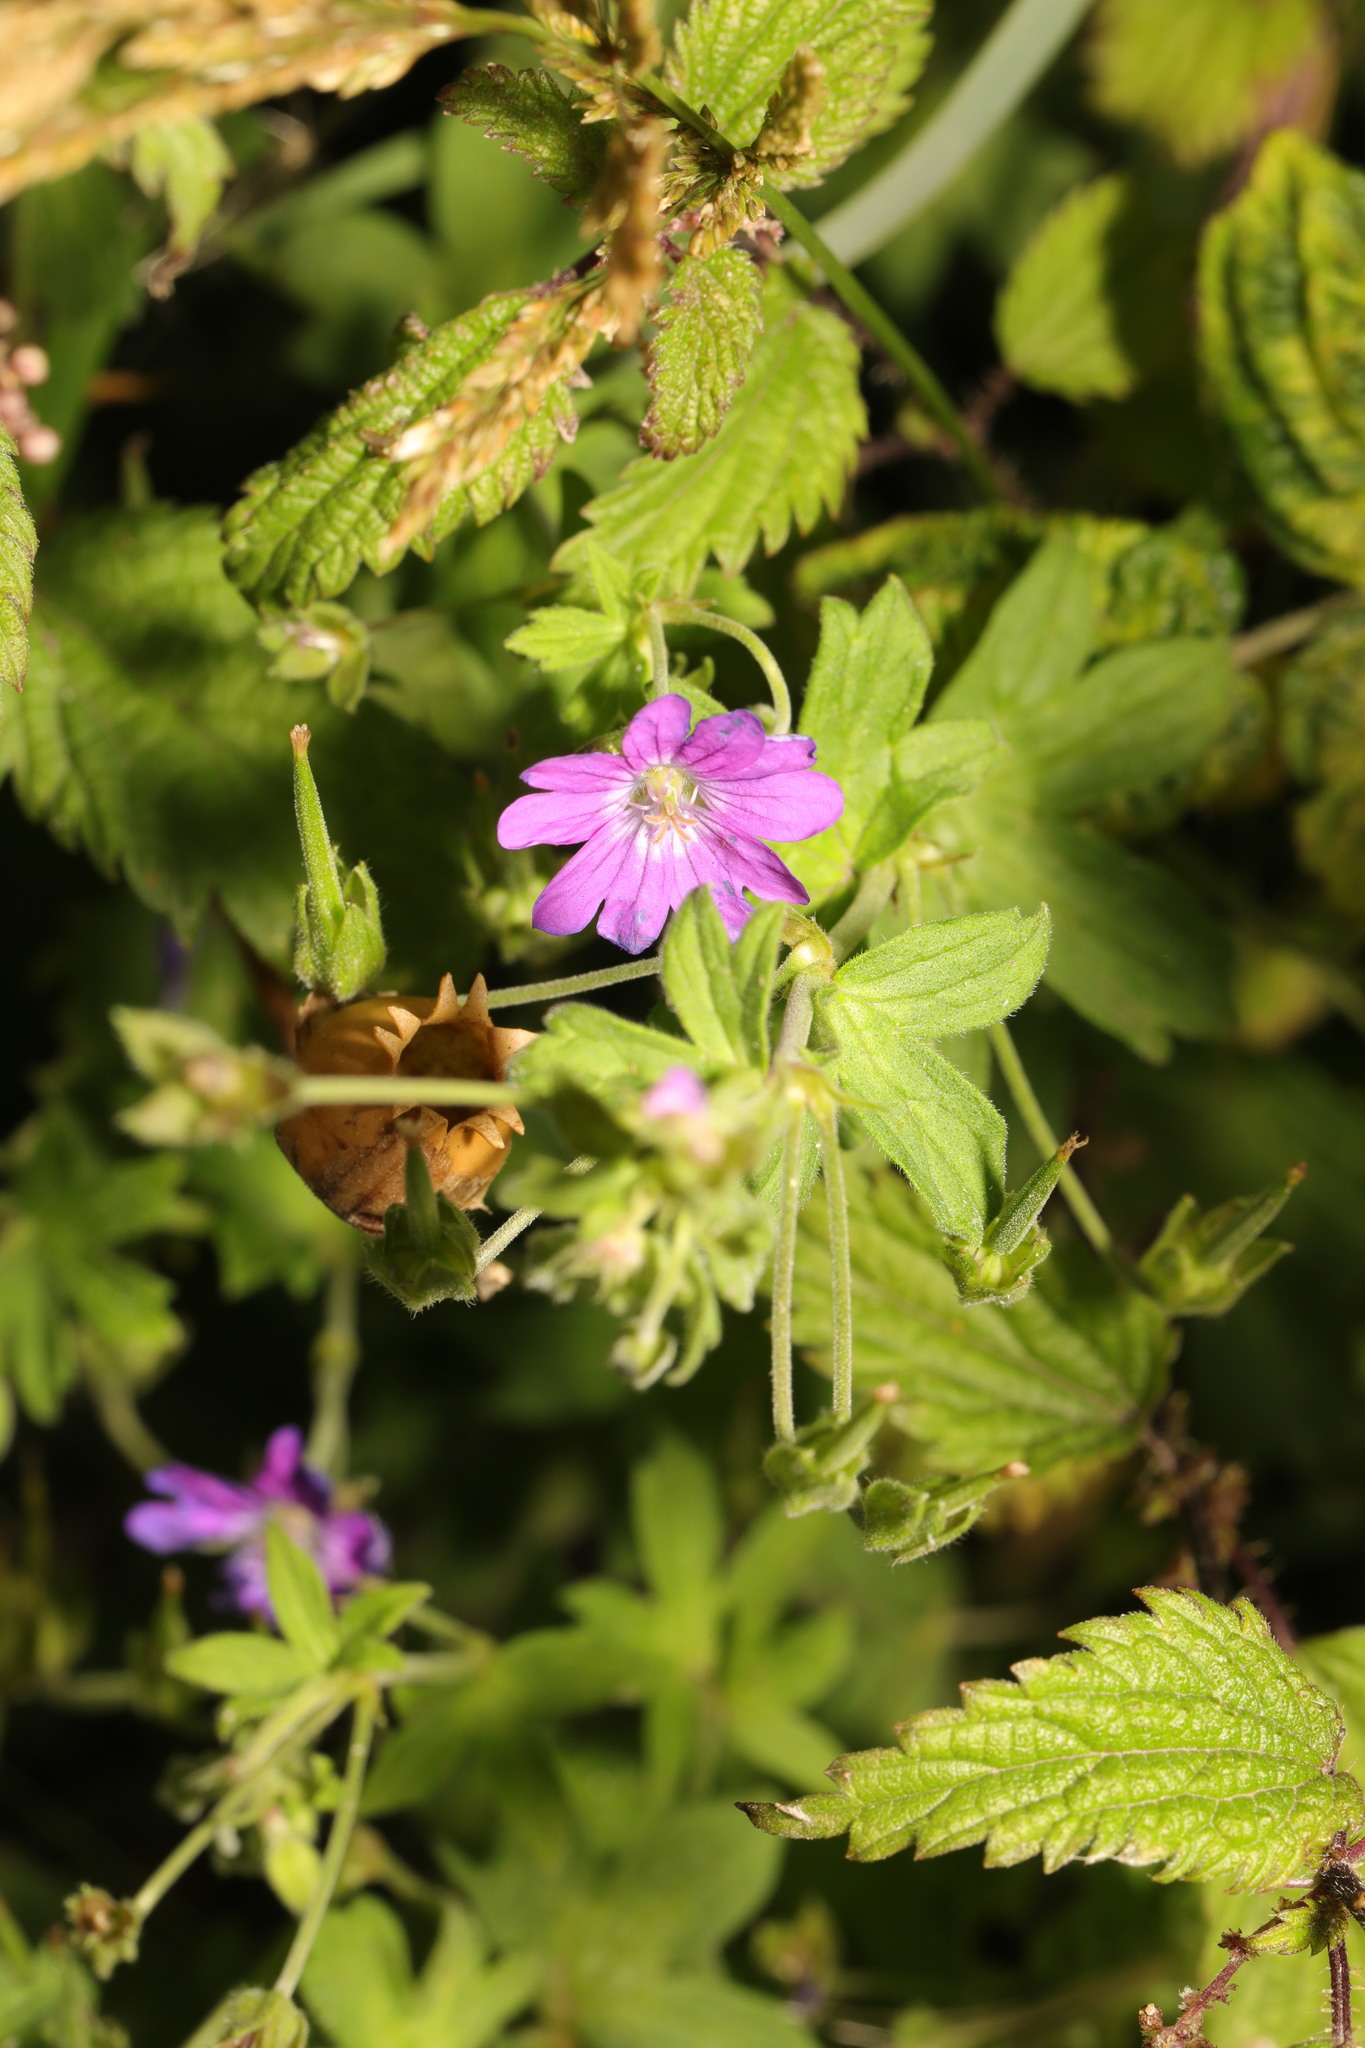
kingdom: Plantae
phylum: Tracheophyta
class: Magnoliopsida
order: Geraniales
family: Geraniaceae
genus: Geranium
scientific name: Geranium pyrenaicum
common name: Hedgerow crane's-bill
